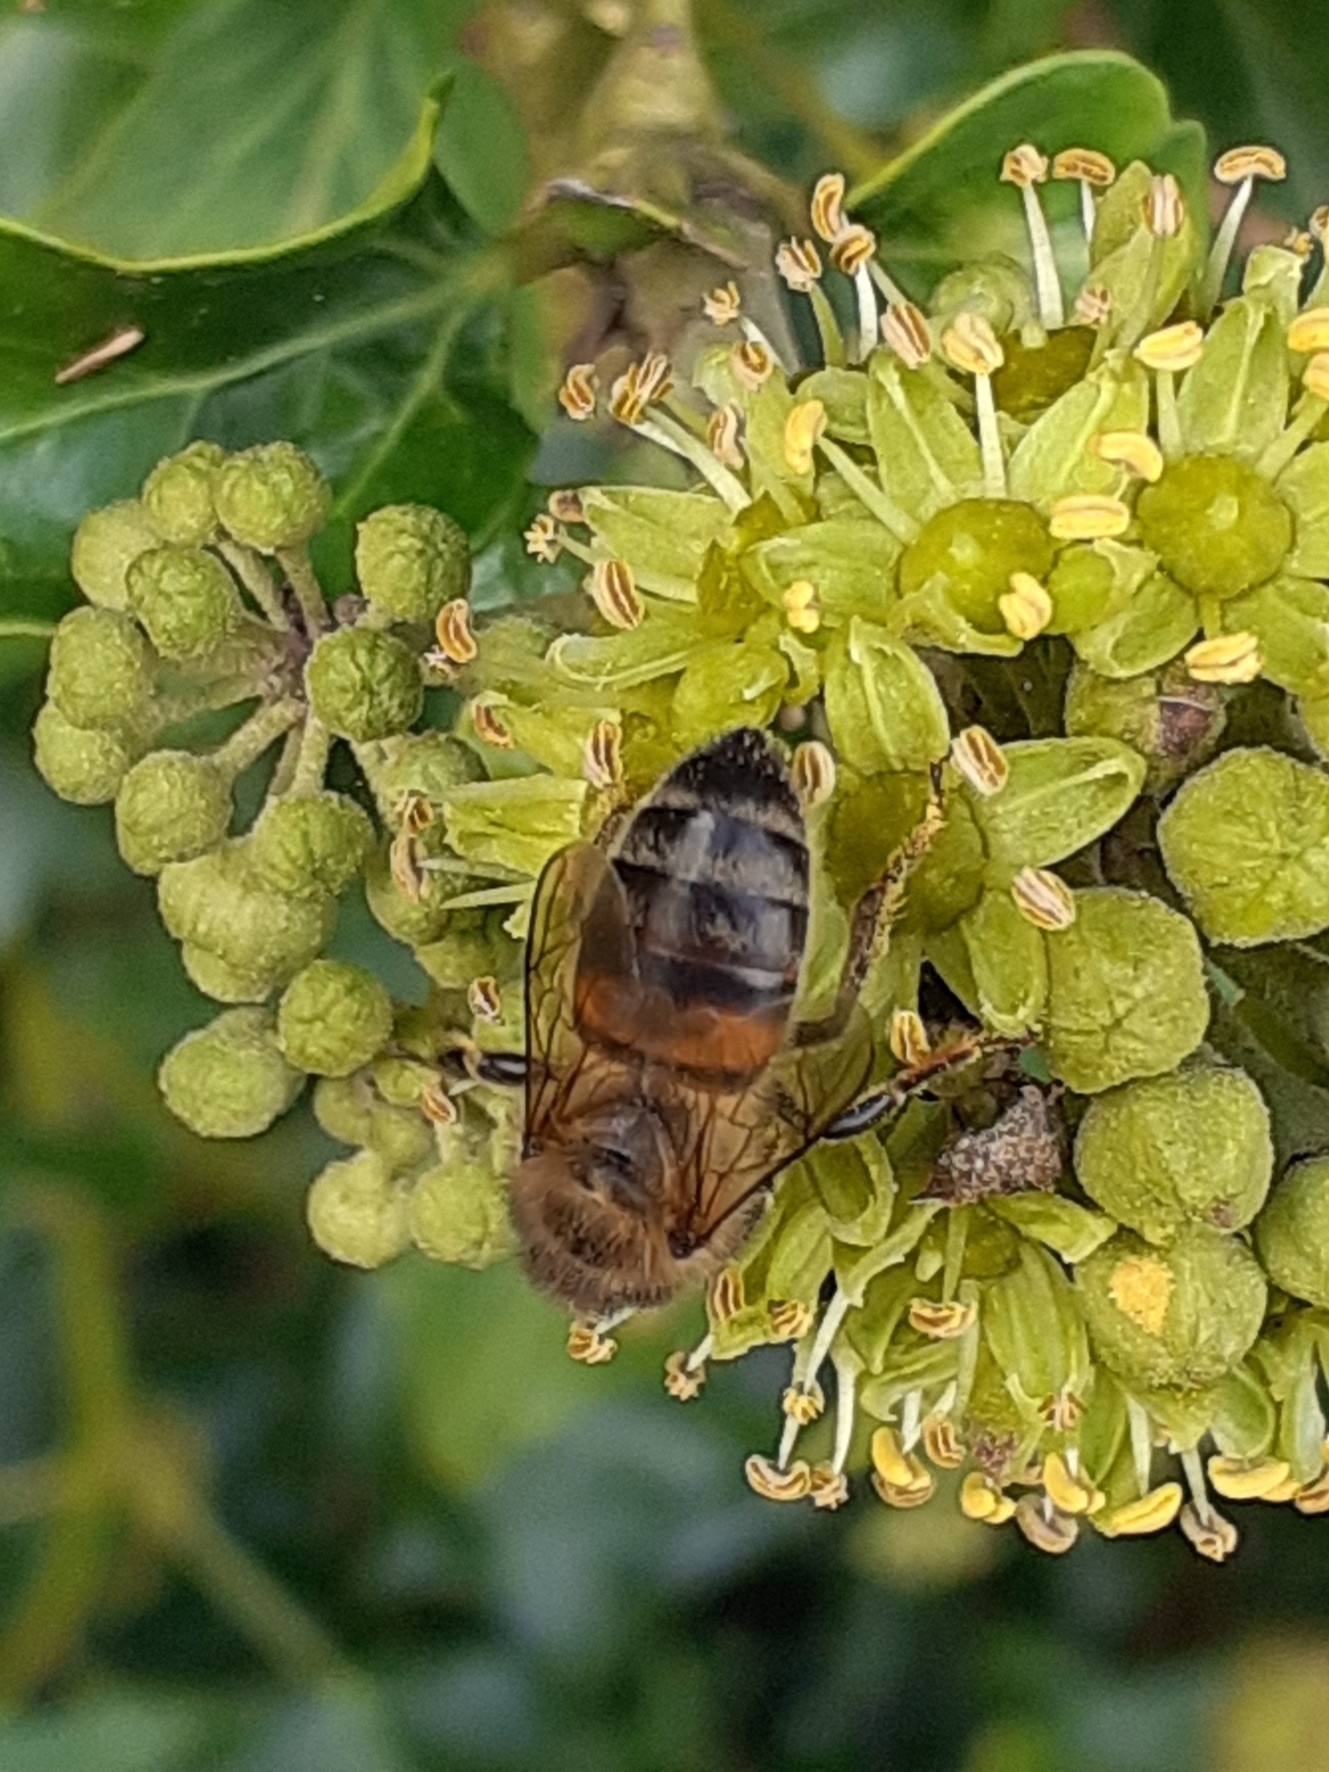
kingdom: Animalia
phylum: Arthropoda
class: Insecta
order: Hymenoptera
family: Apidae
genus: Apis
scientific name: Apis mellifera
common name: Honey bee
